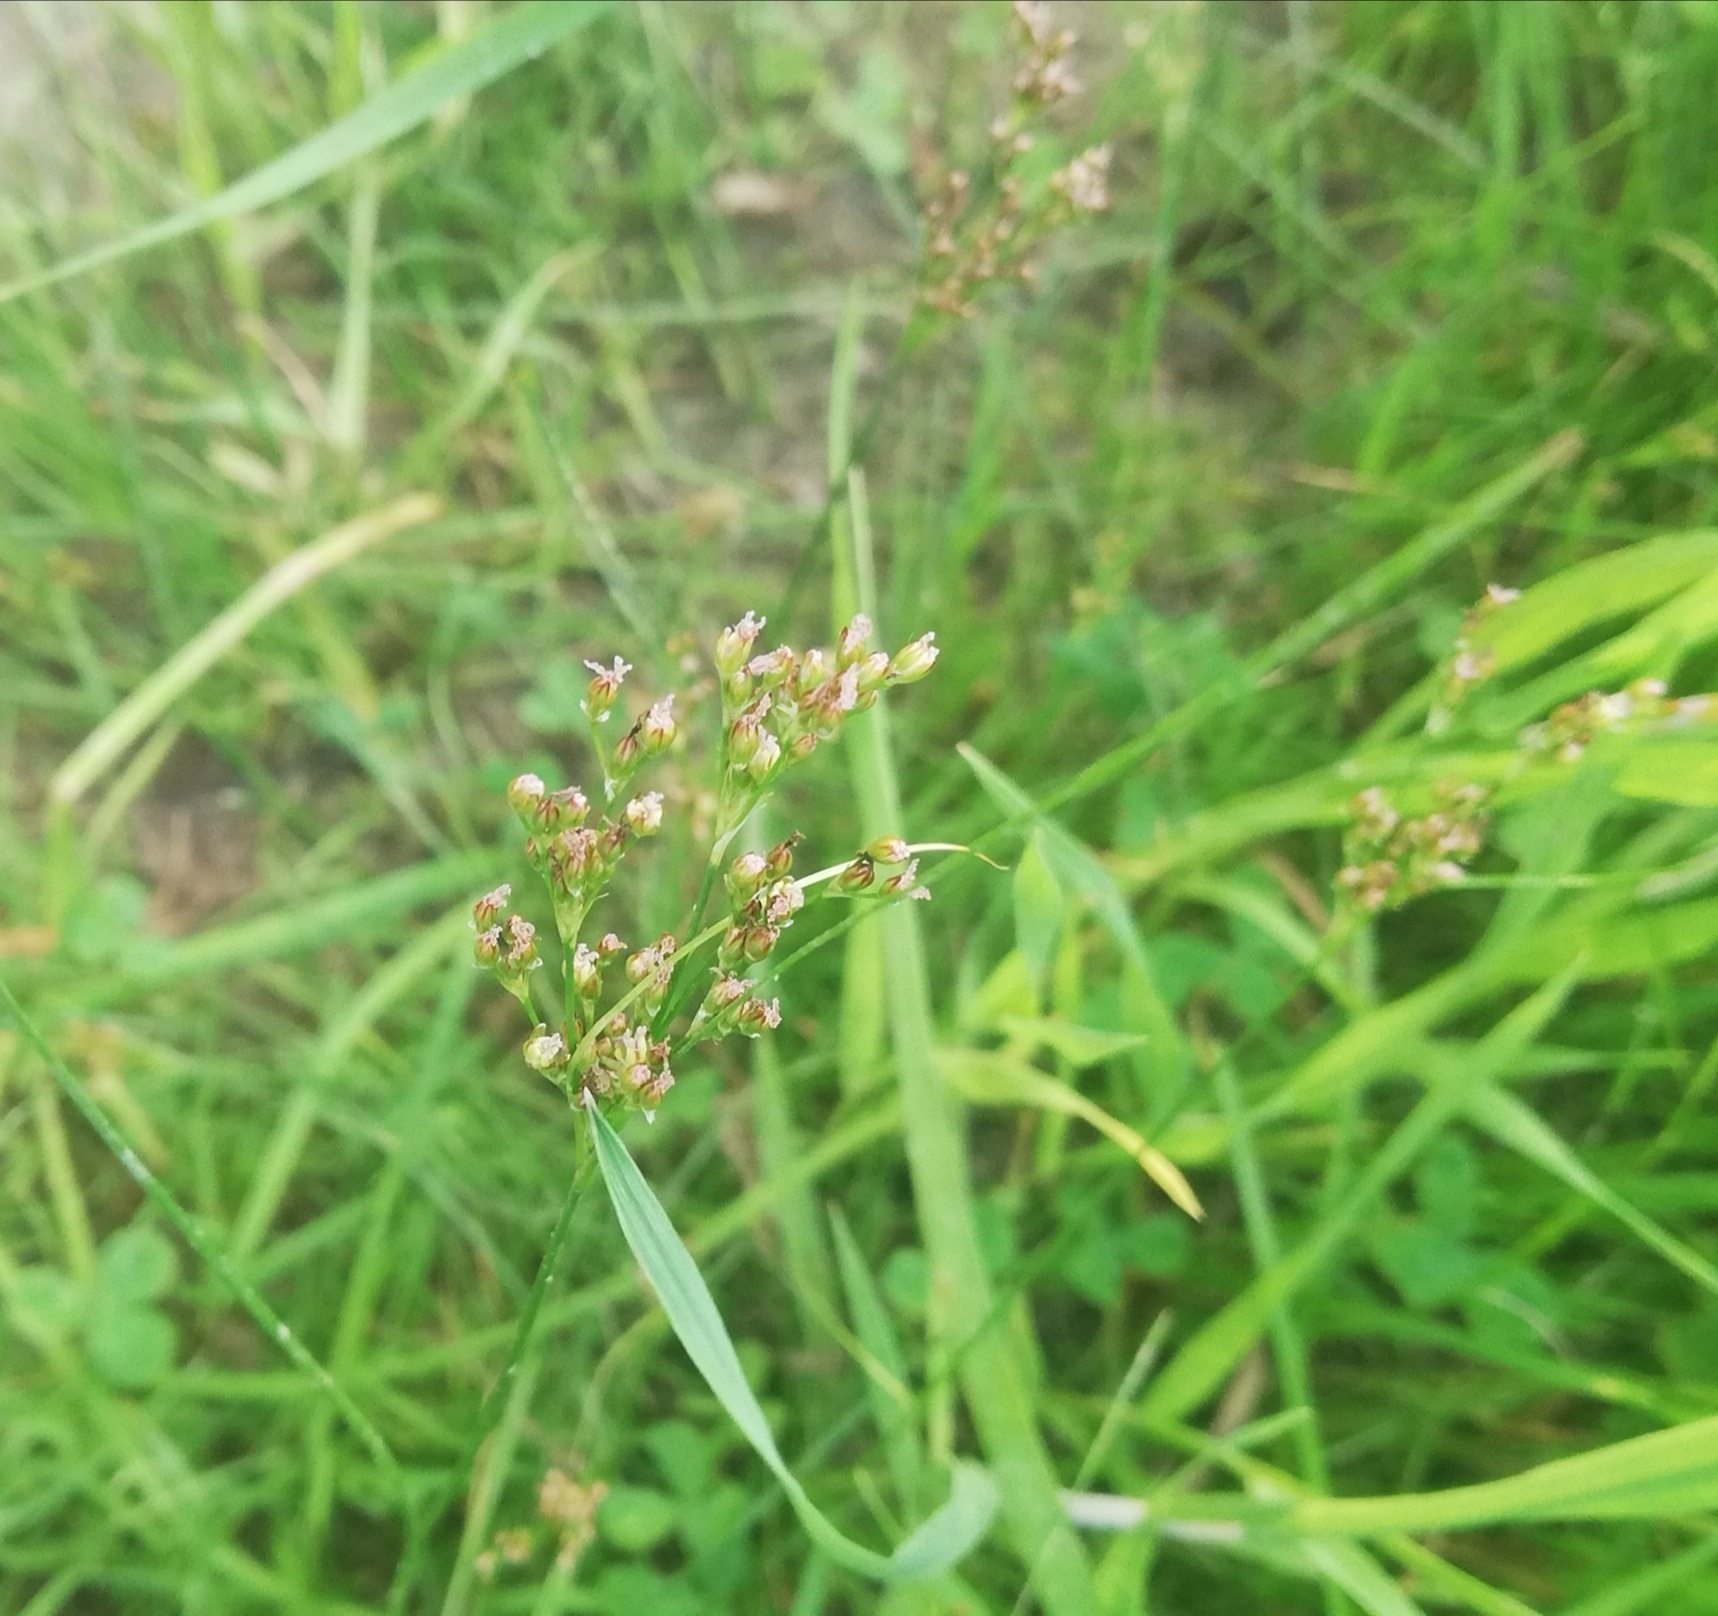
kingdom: Plantae
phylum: Tracheophyta
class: Liliopsida
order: Poales
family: Juncaceae
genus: Juncus
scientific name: Juncus compressus
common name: Round-fruited rush
